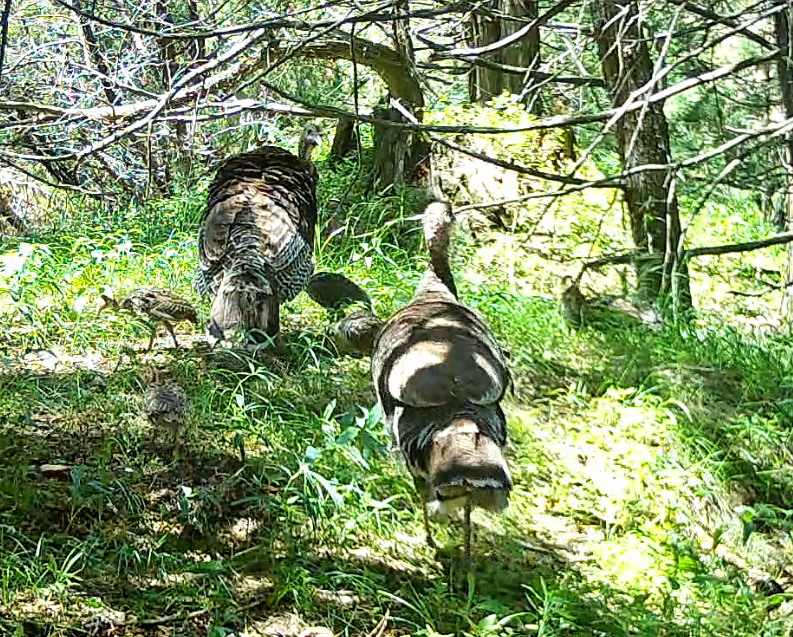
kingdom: Animalia
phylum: Chordata
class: Aves
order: Galliformes
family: Phasianidae
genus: Meleagris
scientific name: Meleagris gallopavo
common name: Wild turkey
